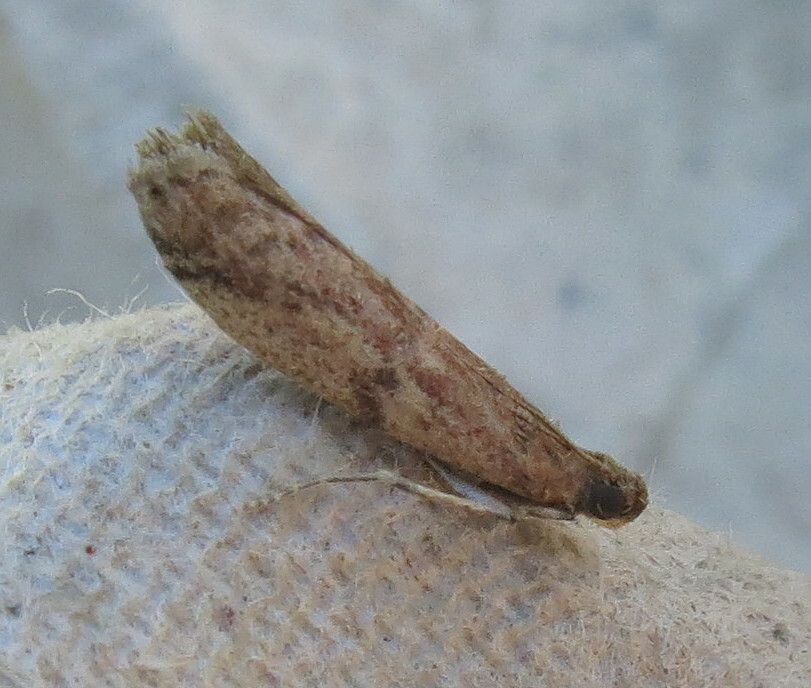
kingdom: Animalia
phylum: Arthropoda
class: Insecta
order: Lepidoptera
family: Pyralidae
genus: Ephestia
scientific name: Ephestia woodiella
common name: False cacao moth
